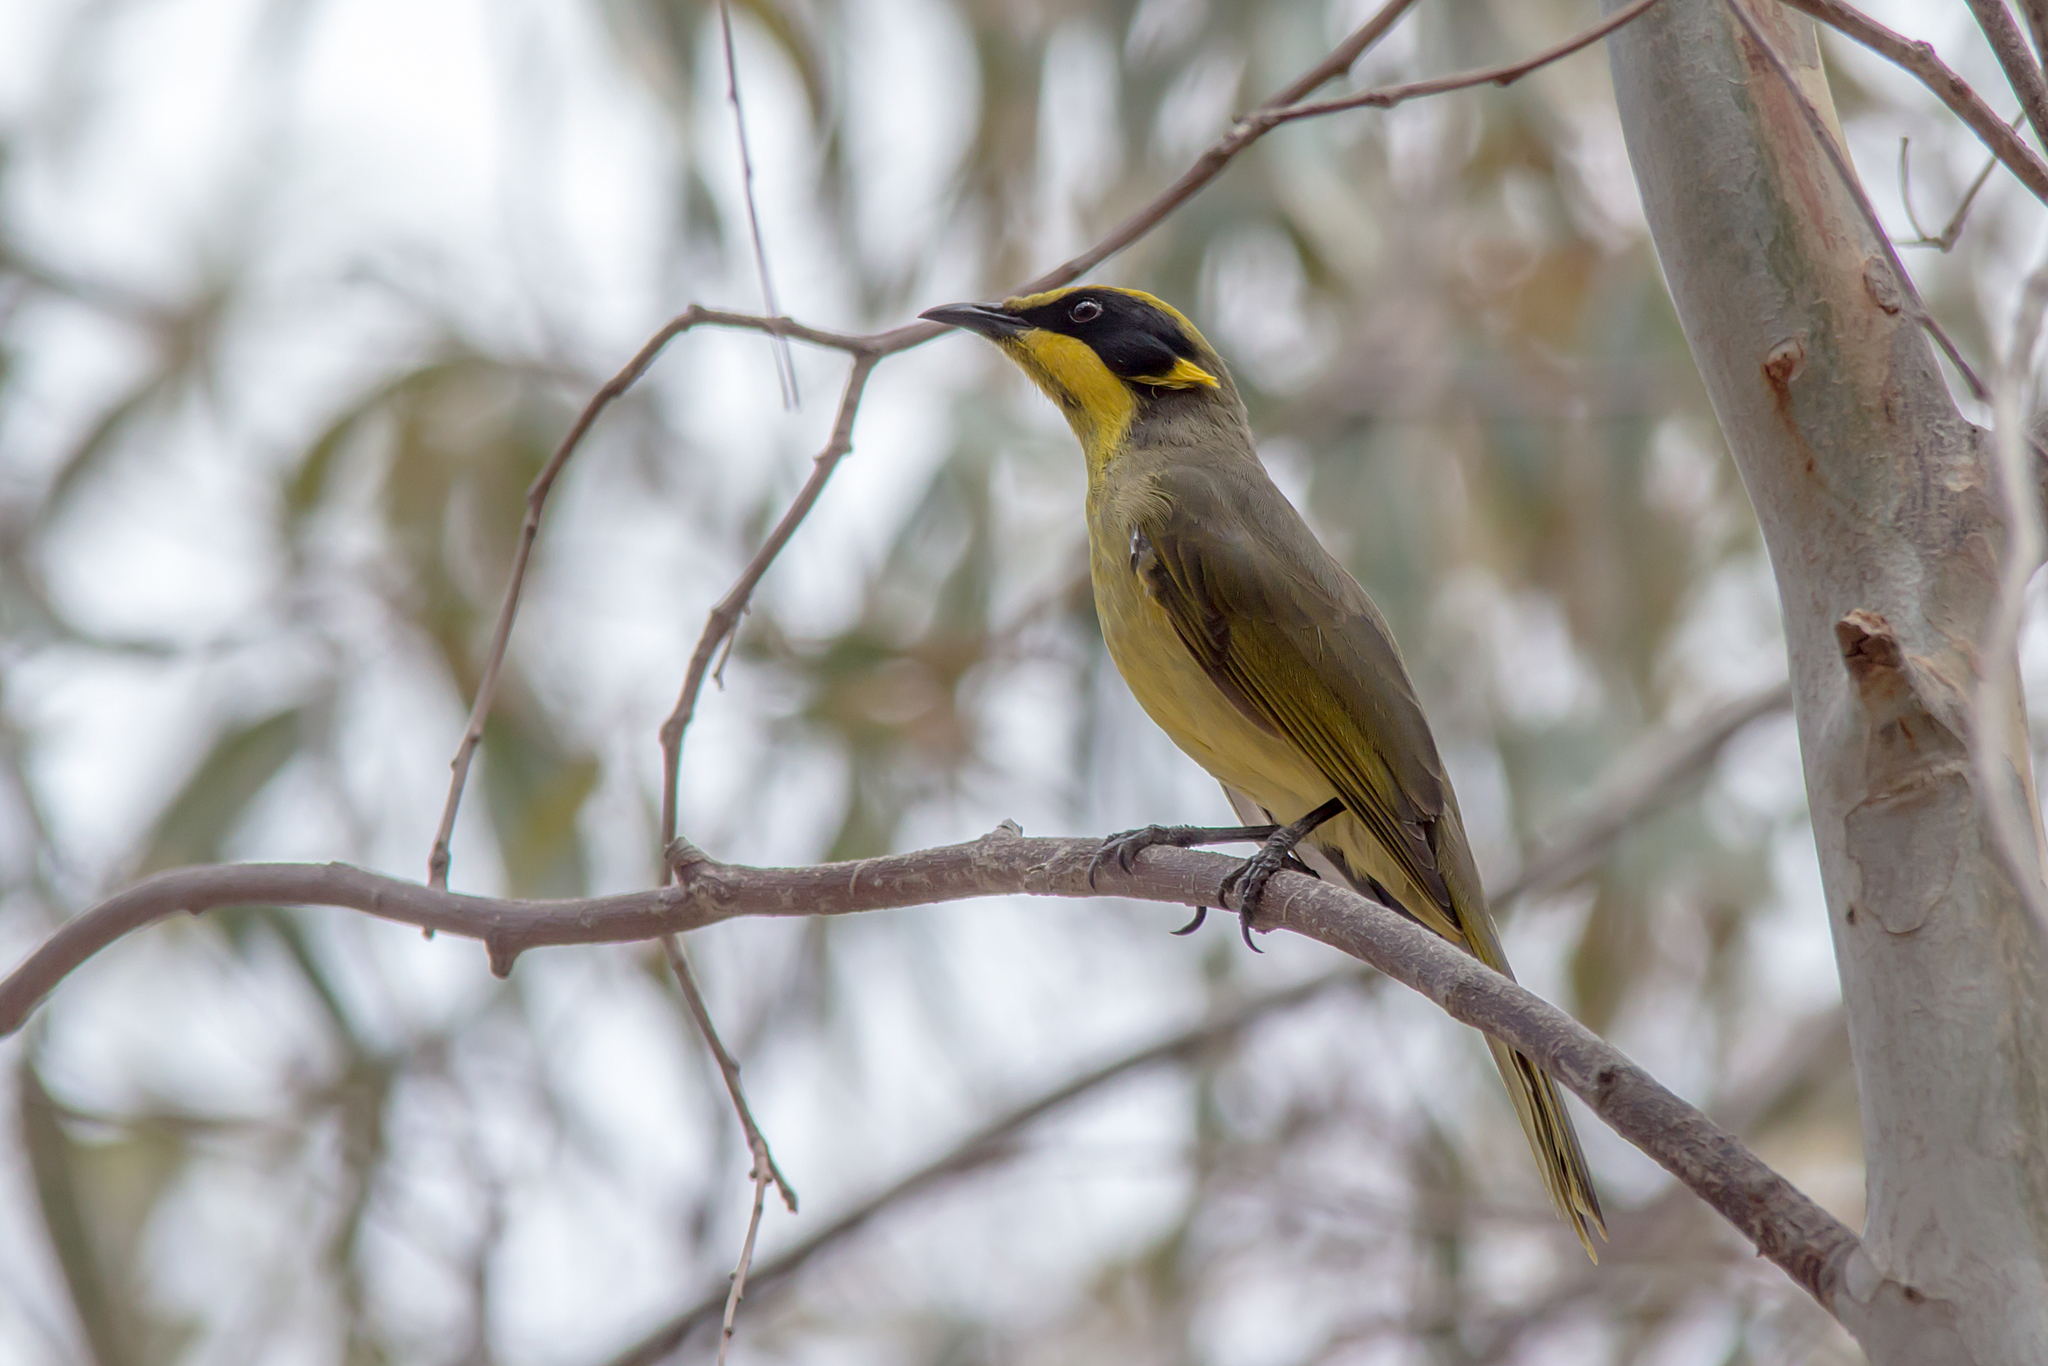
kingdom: Animalia
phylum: Chordata
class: Aves
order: Passeriformes
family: Meliphagidae
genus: Lichenostomus
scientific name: Lichenostomus melanops
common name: Yellow-tufted honeyeater
